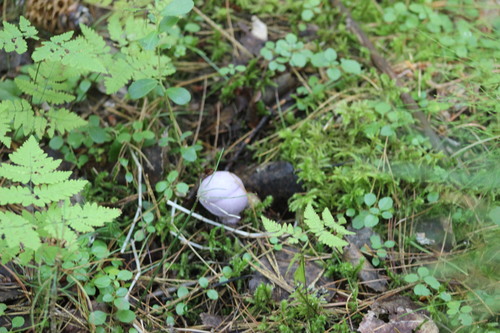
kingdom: Fungi
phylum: Basidiomycota
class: Agaricomycetes
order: Agaricales
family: Cortinariaceae
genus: Cortinarius
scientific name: Cortinarius camphoratus
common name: Goatcheese webcap
